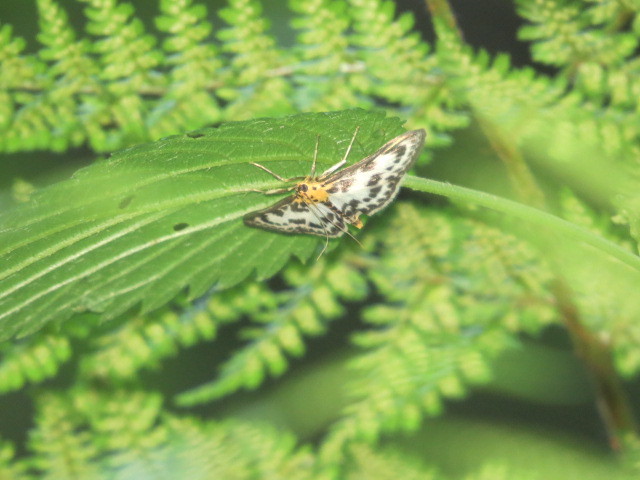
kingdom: Animalia
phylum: Arthropoda
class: Insecta
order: Lepidoptera
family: Crambidae
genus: Anania
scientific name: Anania hortulata
